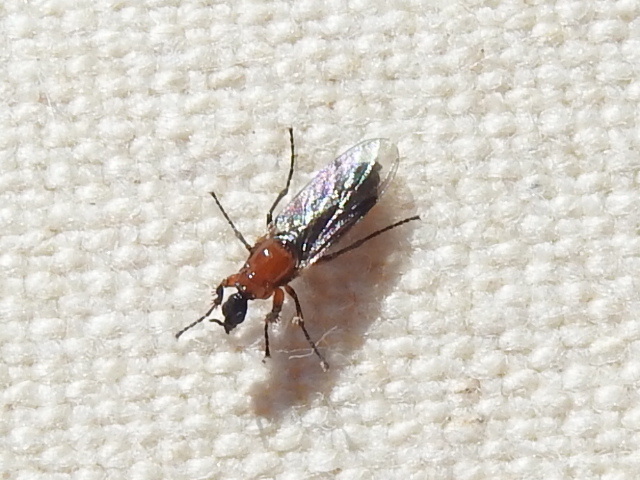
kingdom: Animalia
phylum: Arthropoda
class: Insecta
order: Diptera
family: Bibionidae
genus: Dilophus
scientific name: Dilophus tibialis
